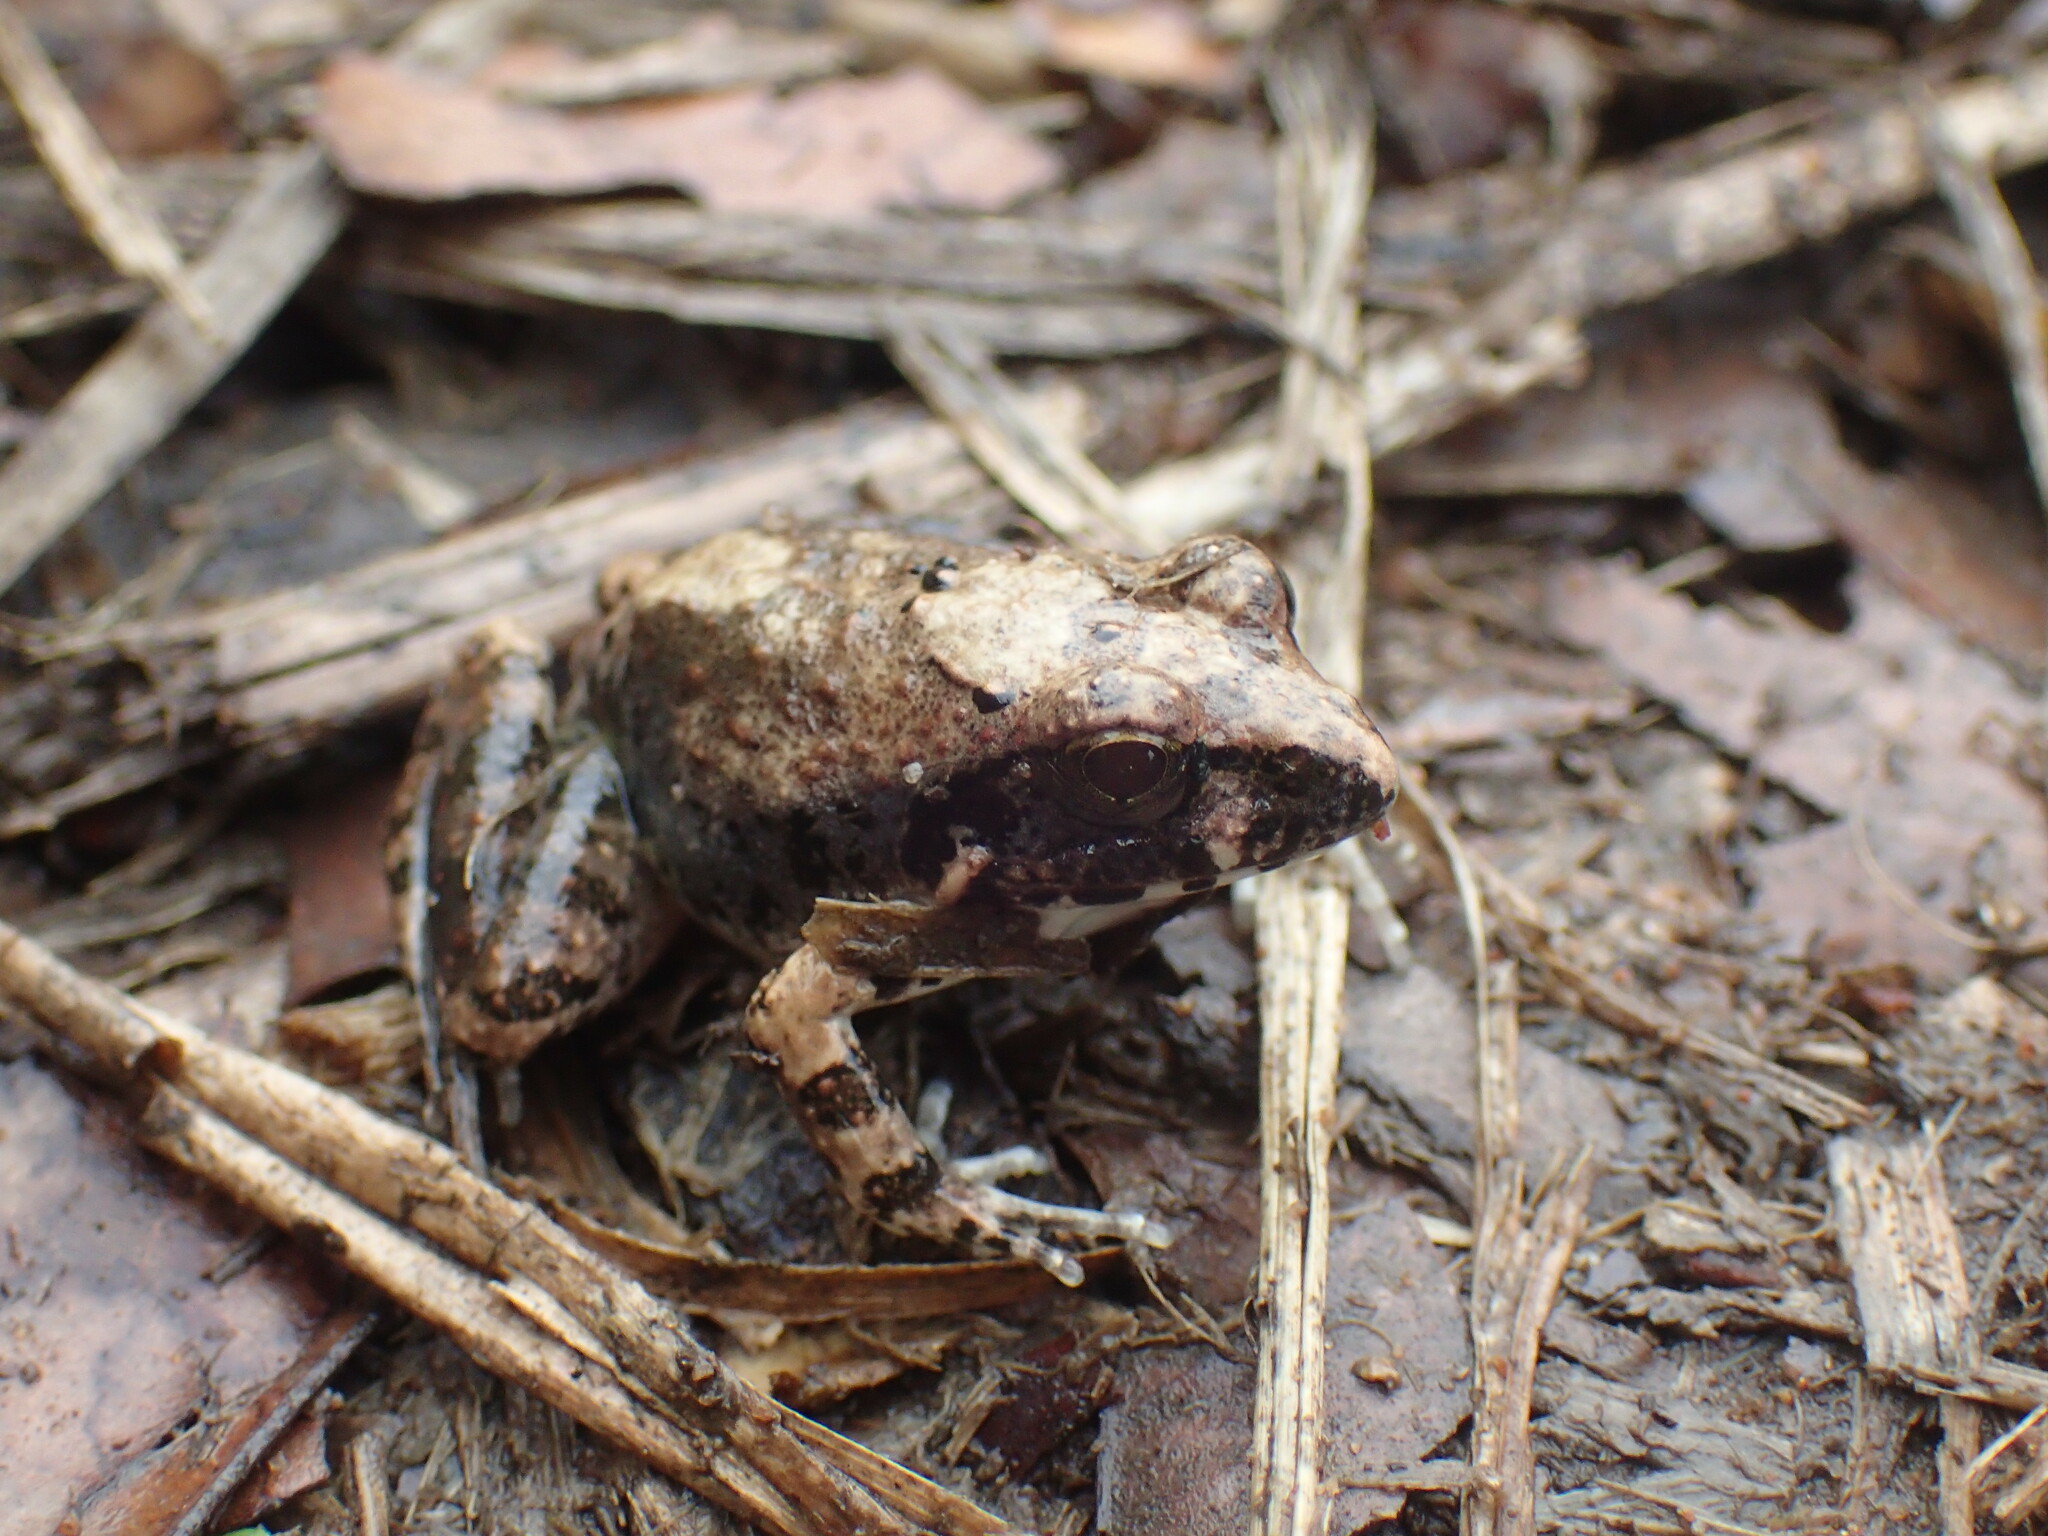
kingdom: Animalia
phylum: Chordata
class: Amphibia
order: Anura
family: Pyxicephalidae
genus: Tomopterna
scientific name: Tomopterna natalensis
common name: Natal sand frog
